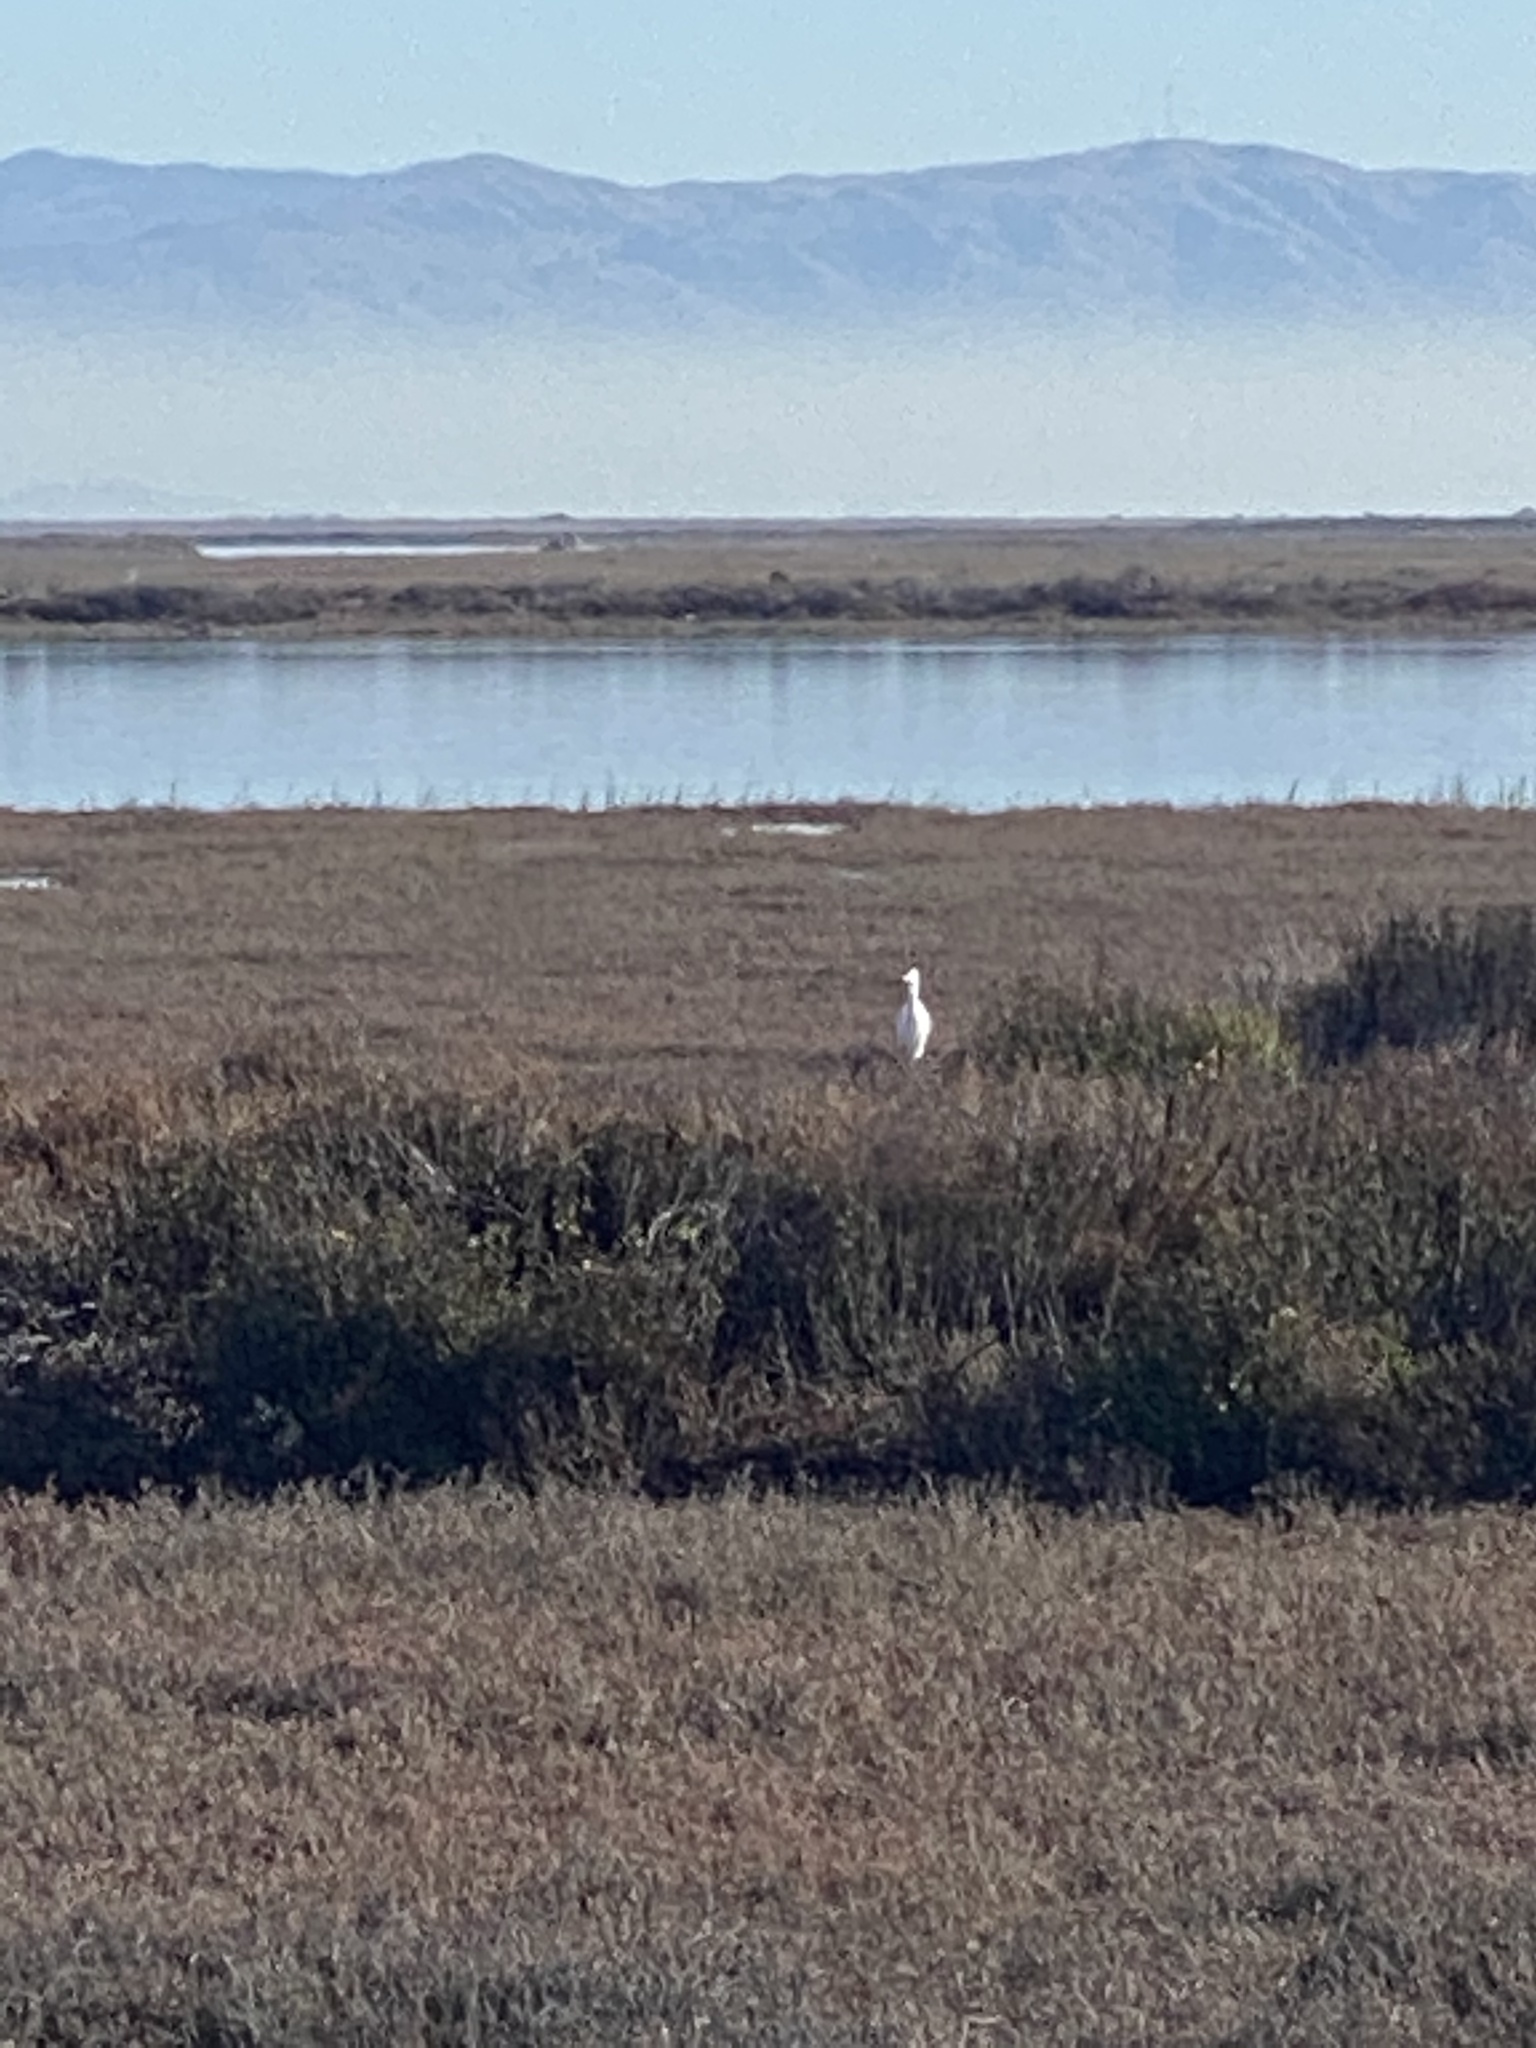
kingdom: Animalia
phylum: Chordata
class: Aves
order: Pelecaniformes
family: Ardeidae
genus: Ardea
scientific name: Ardea alba
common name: Great egret
